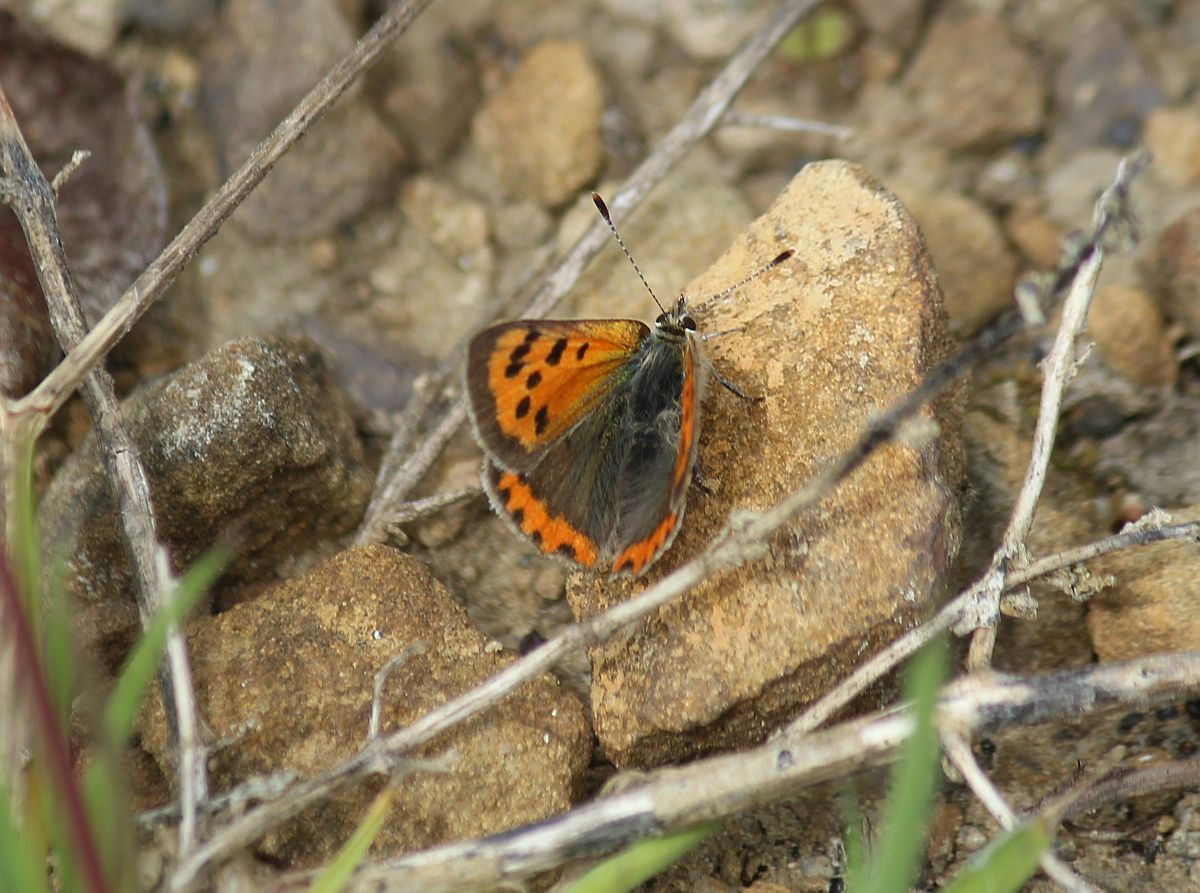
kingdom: Animalia
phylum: Arthropoda
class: Insecta
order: Lepidoptera
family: Lycaenidae
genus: Lycaena
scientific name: Lycaena phlaeas
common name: Small copper
